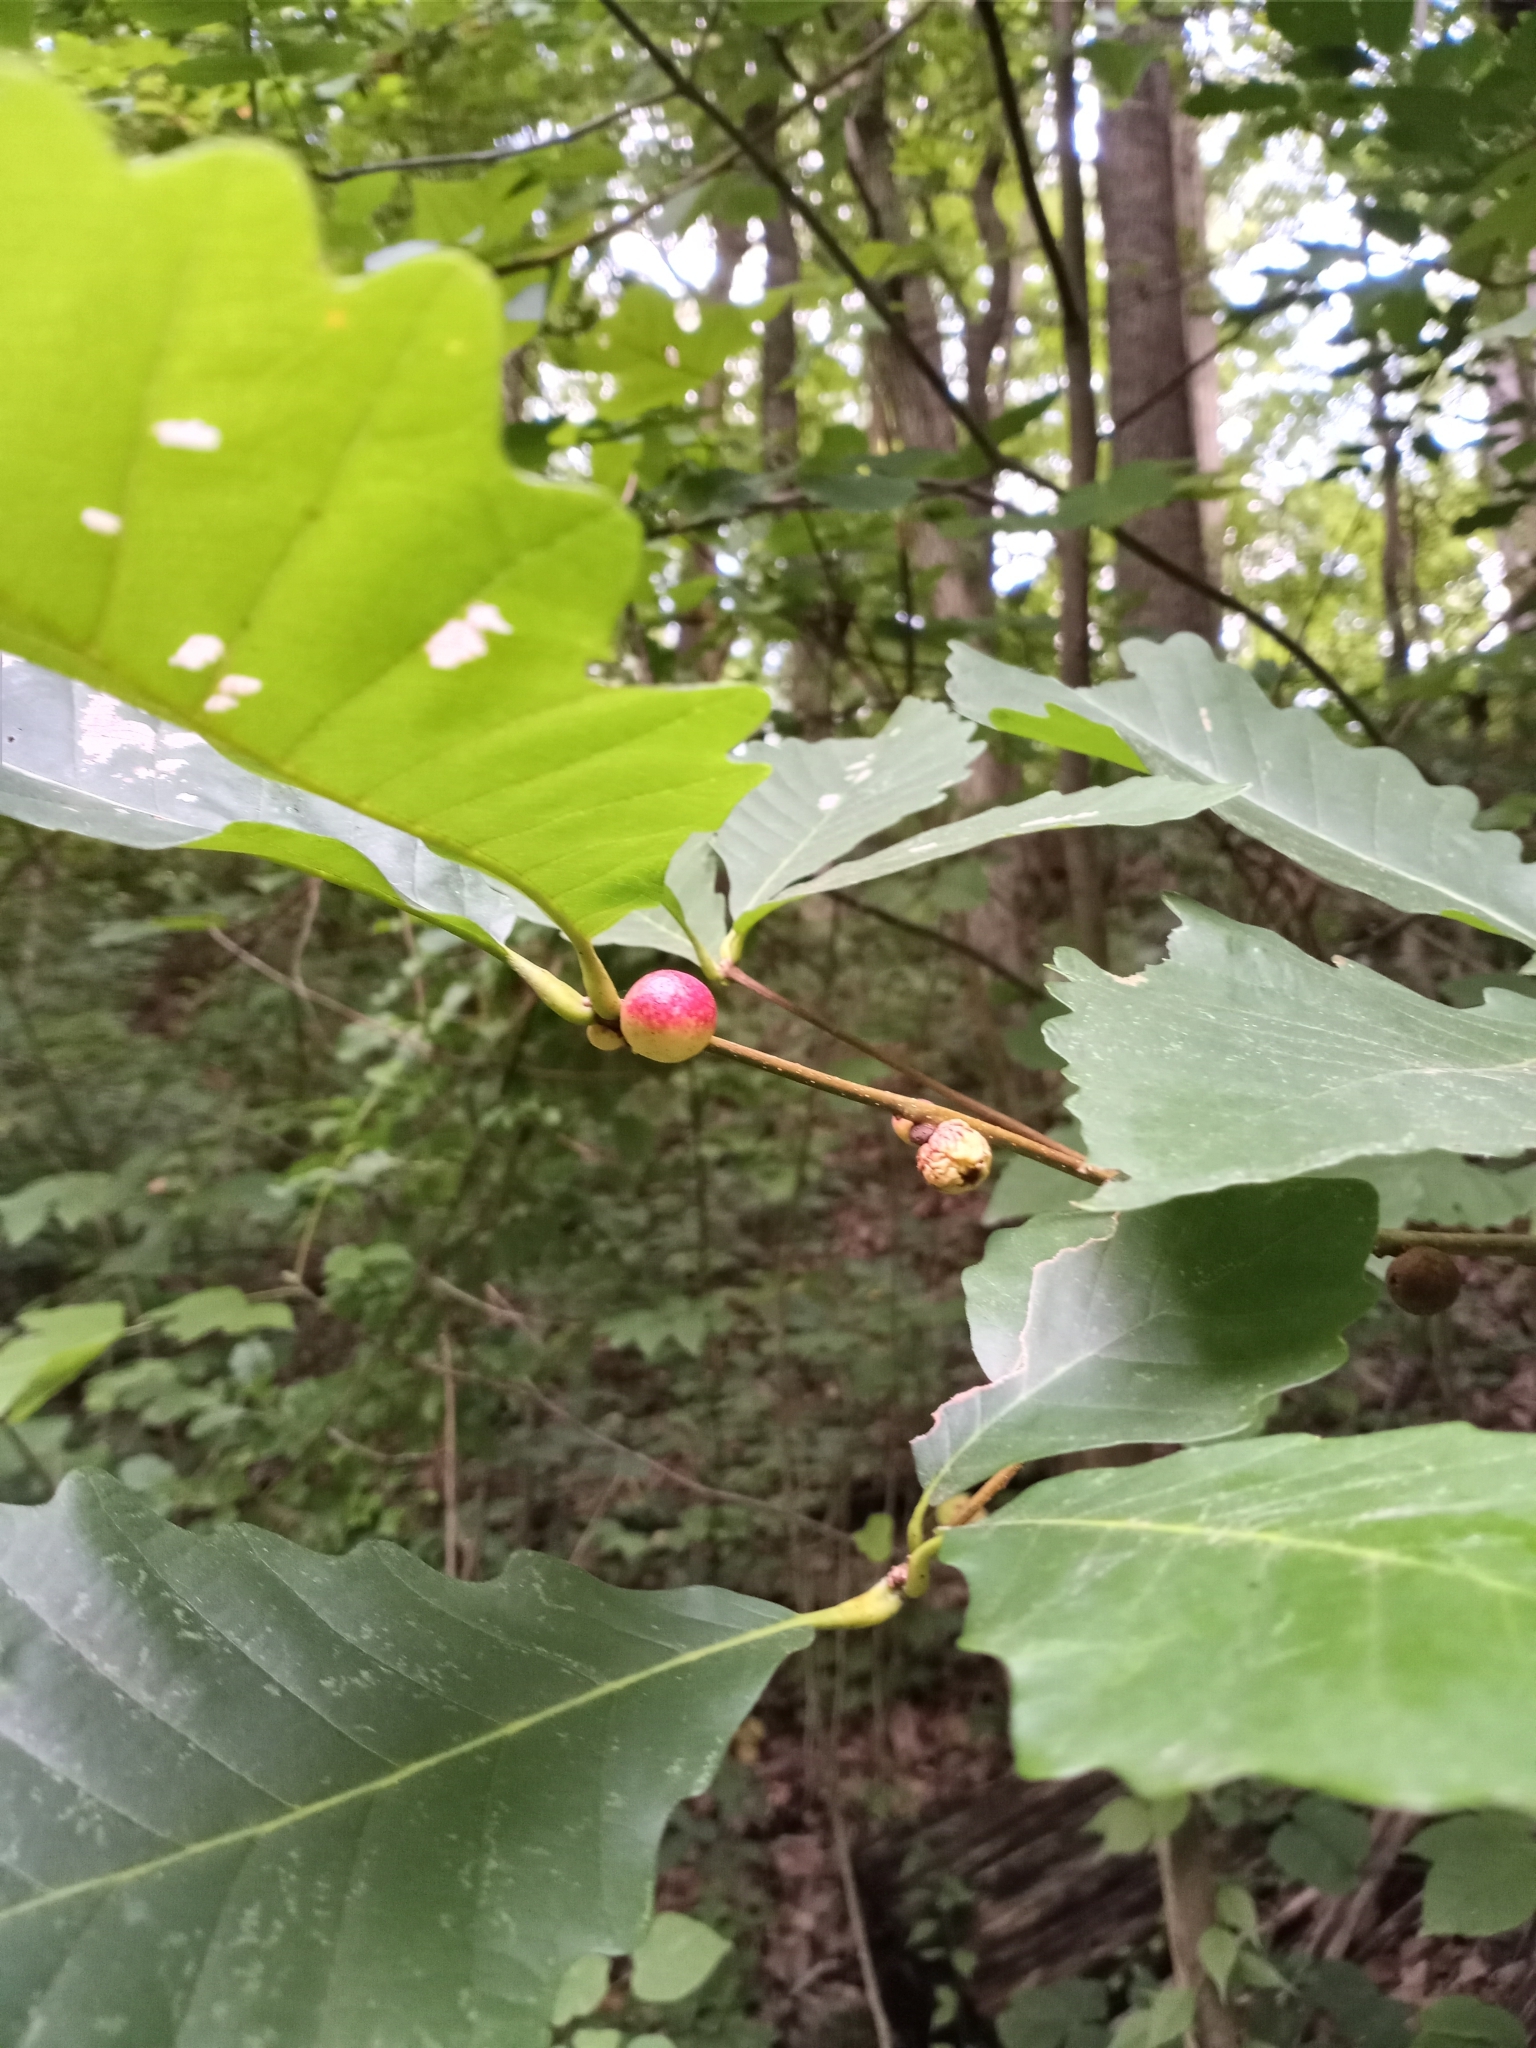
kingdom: Animalia
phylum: Arthropoda
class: Insecta
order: Hymenoptera
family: Cynipidae
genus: Disholcaspis
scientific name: Disholcaspis quercusglobulus
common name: Round bullet gall wasp
